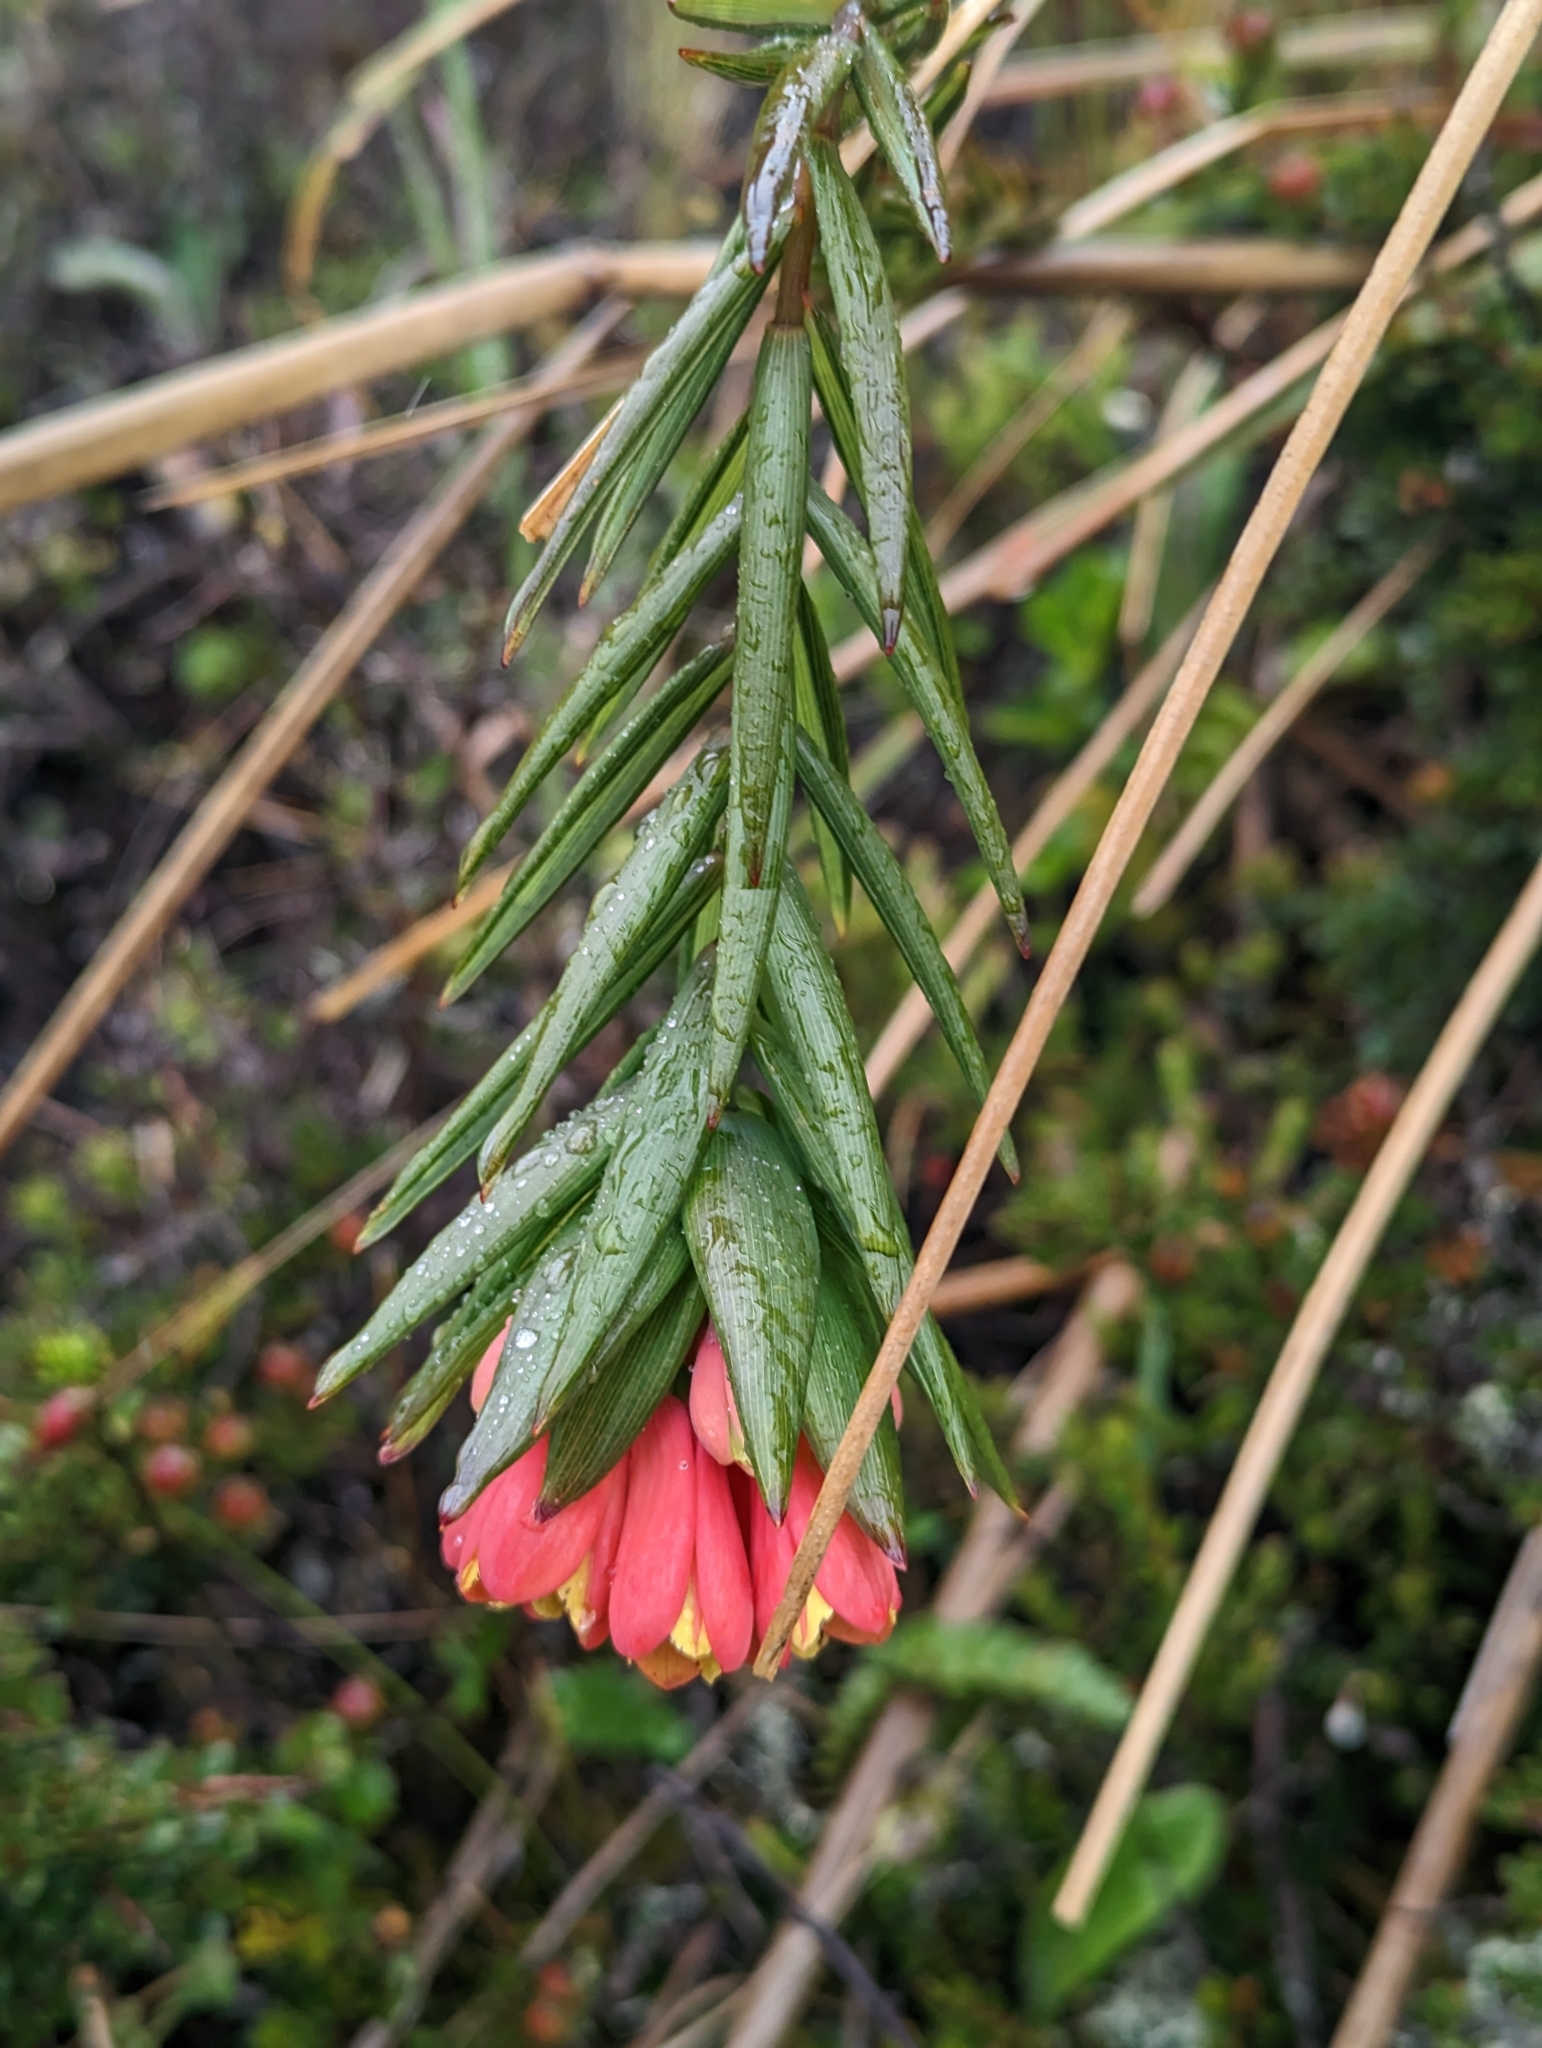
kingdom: Plantae
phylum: Tracheophyta
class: Liliopsida
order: Liliales
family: Alstroemeriaceae
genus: Bomarea
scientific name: Bomarea glaucescens
